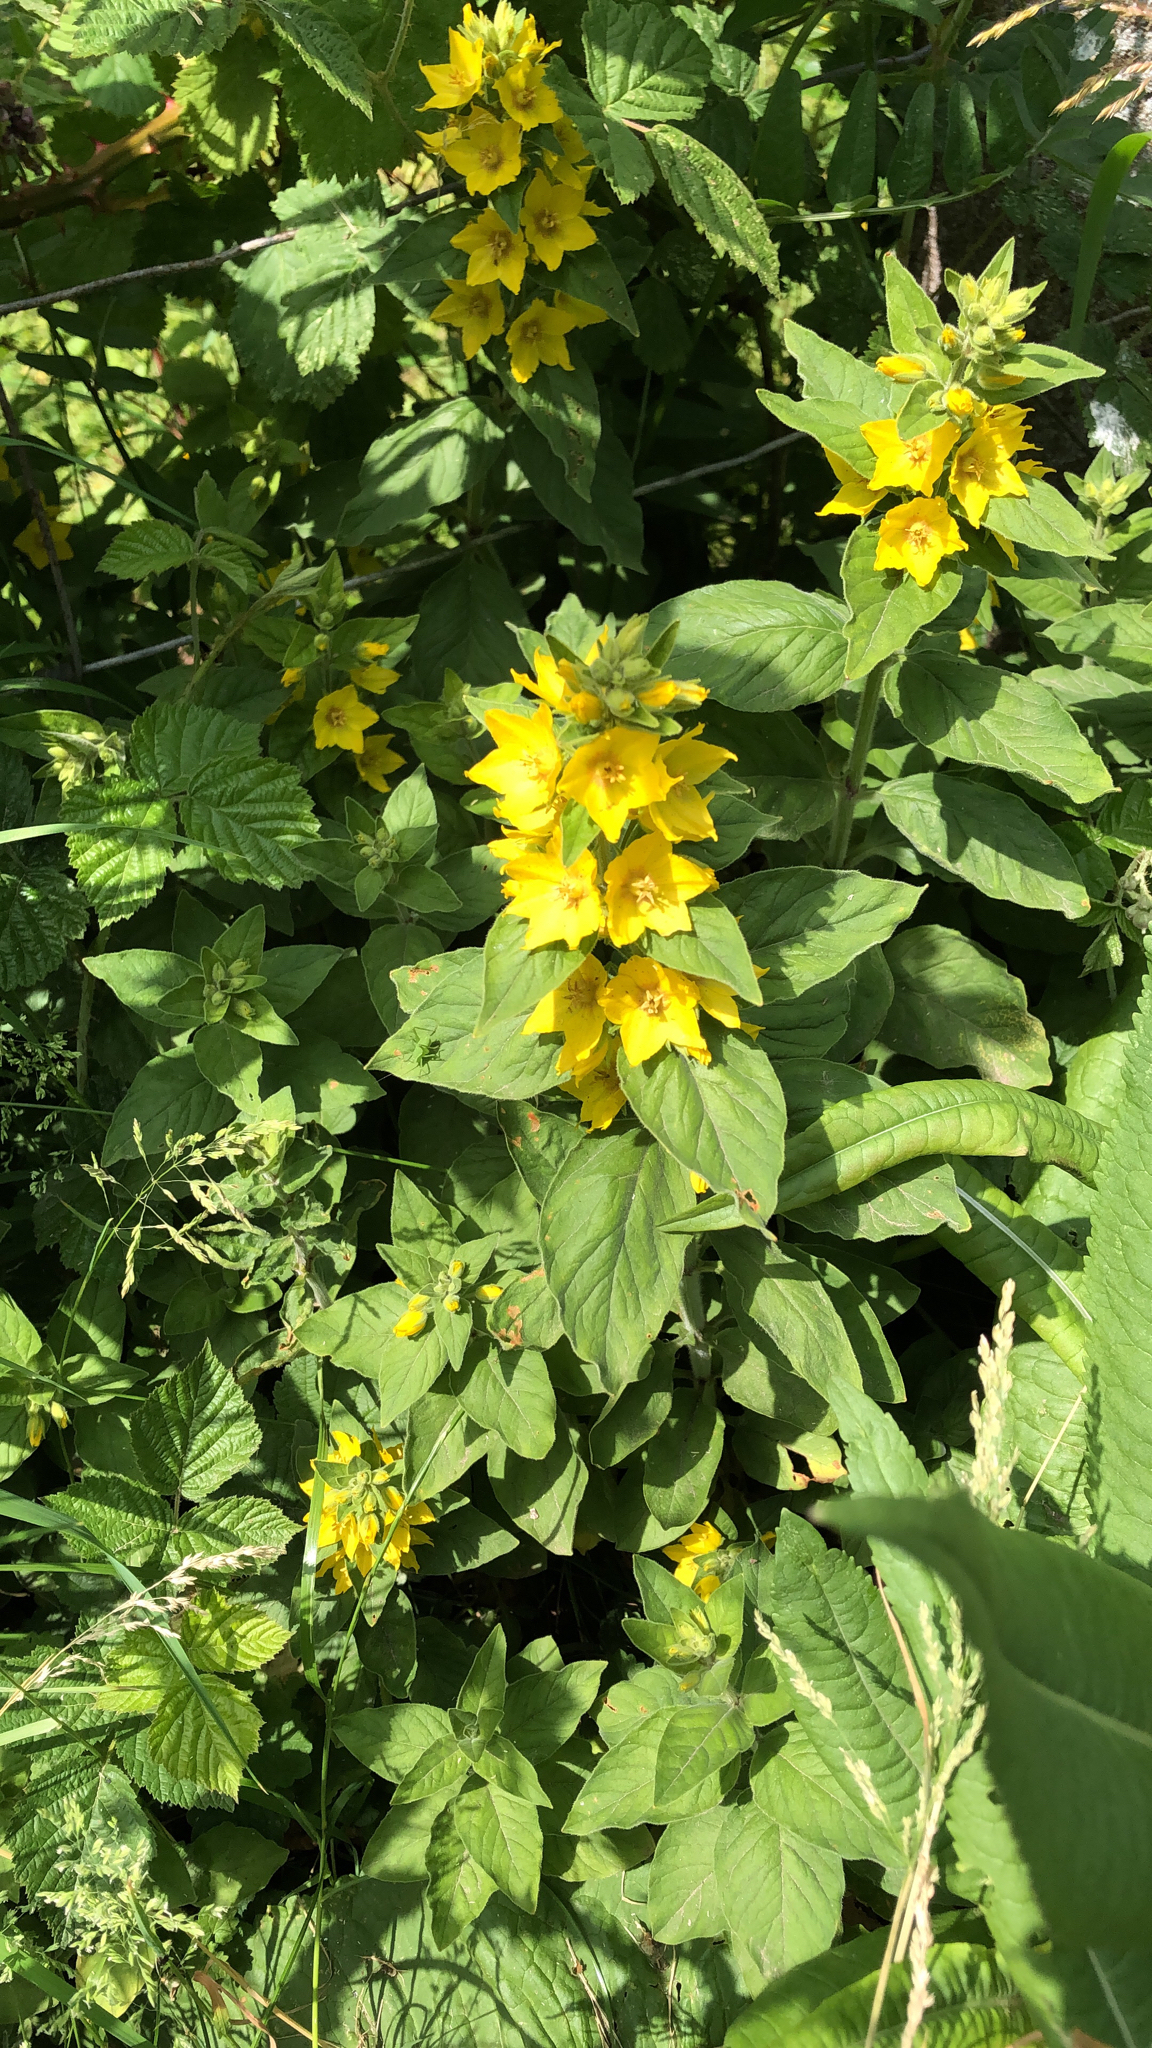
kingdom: Plantae
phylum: Tracheophyta
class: Magnoliopsida
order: Ericales
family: Primulaceae
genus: Lysimachia
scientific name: Lysimachia punctata
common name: Dotted loosestrife
